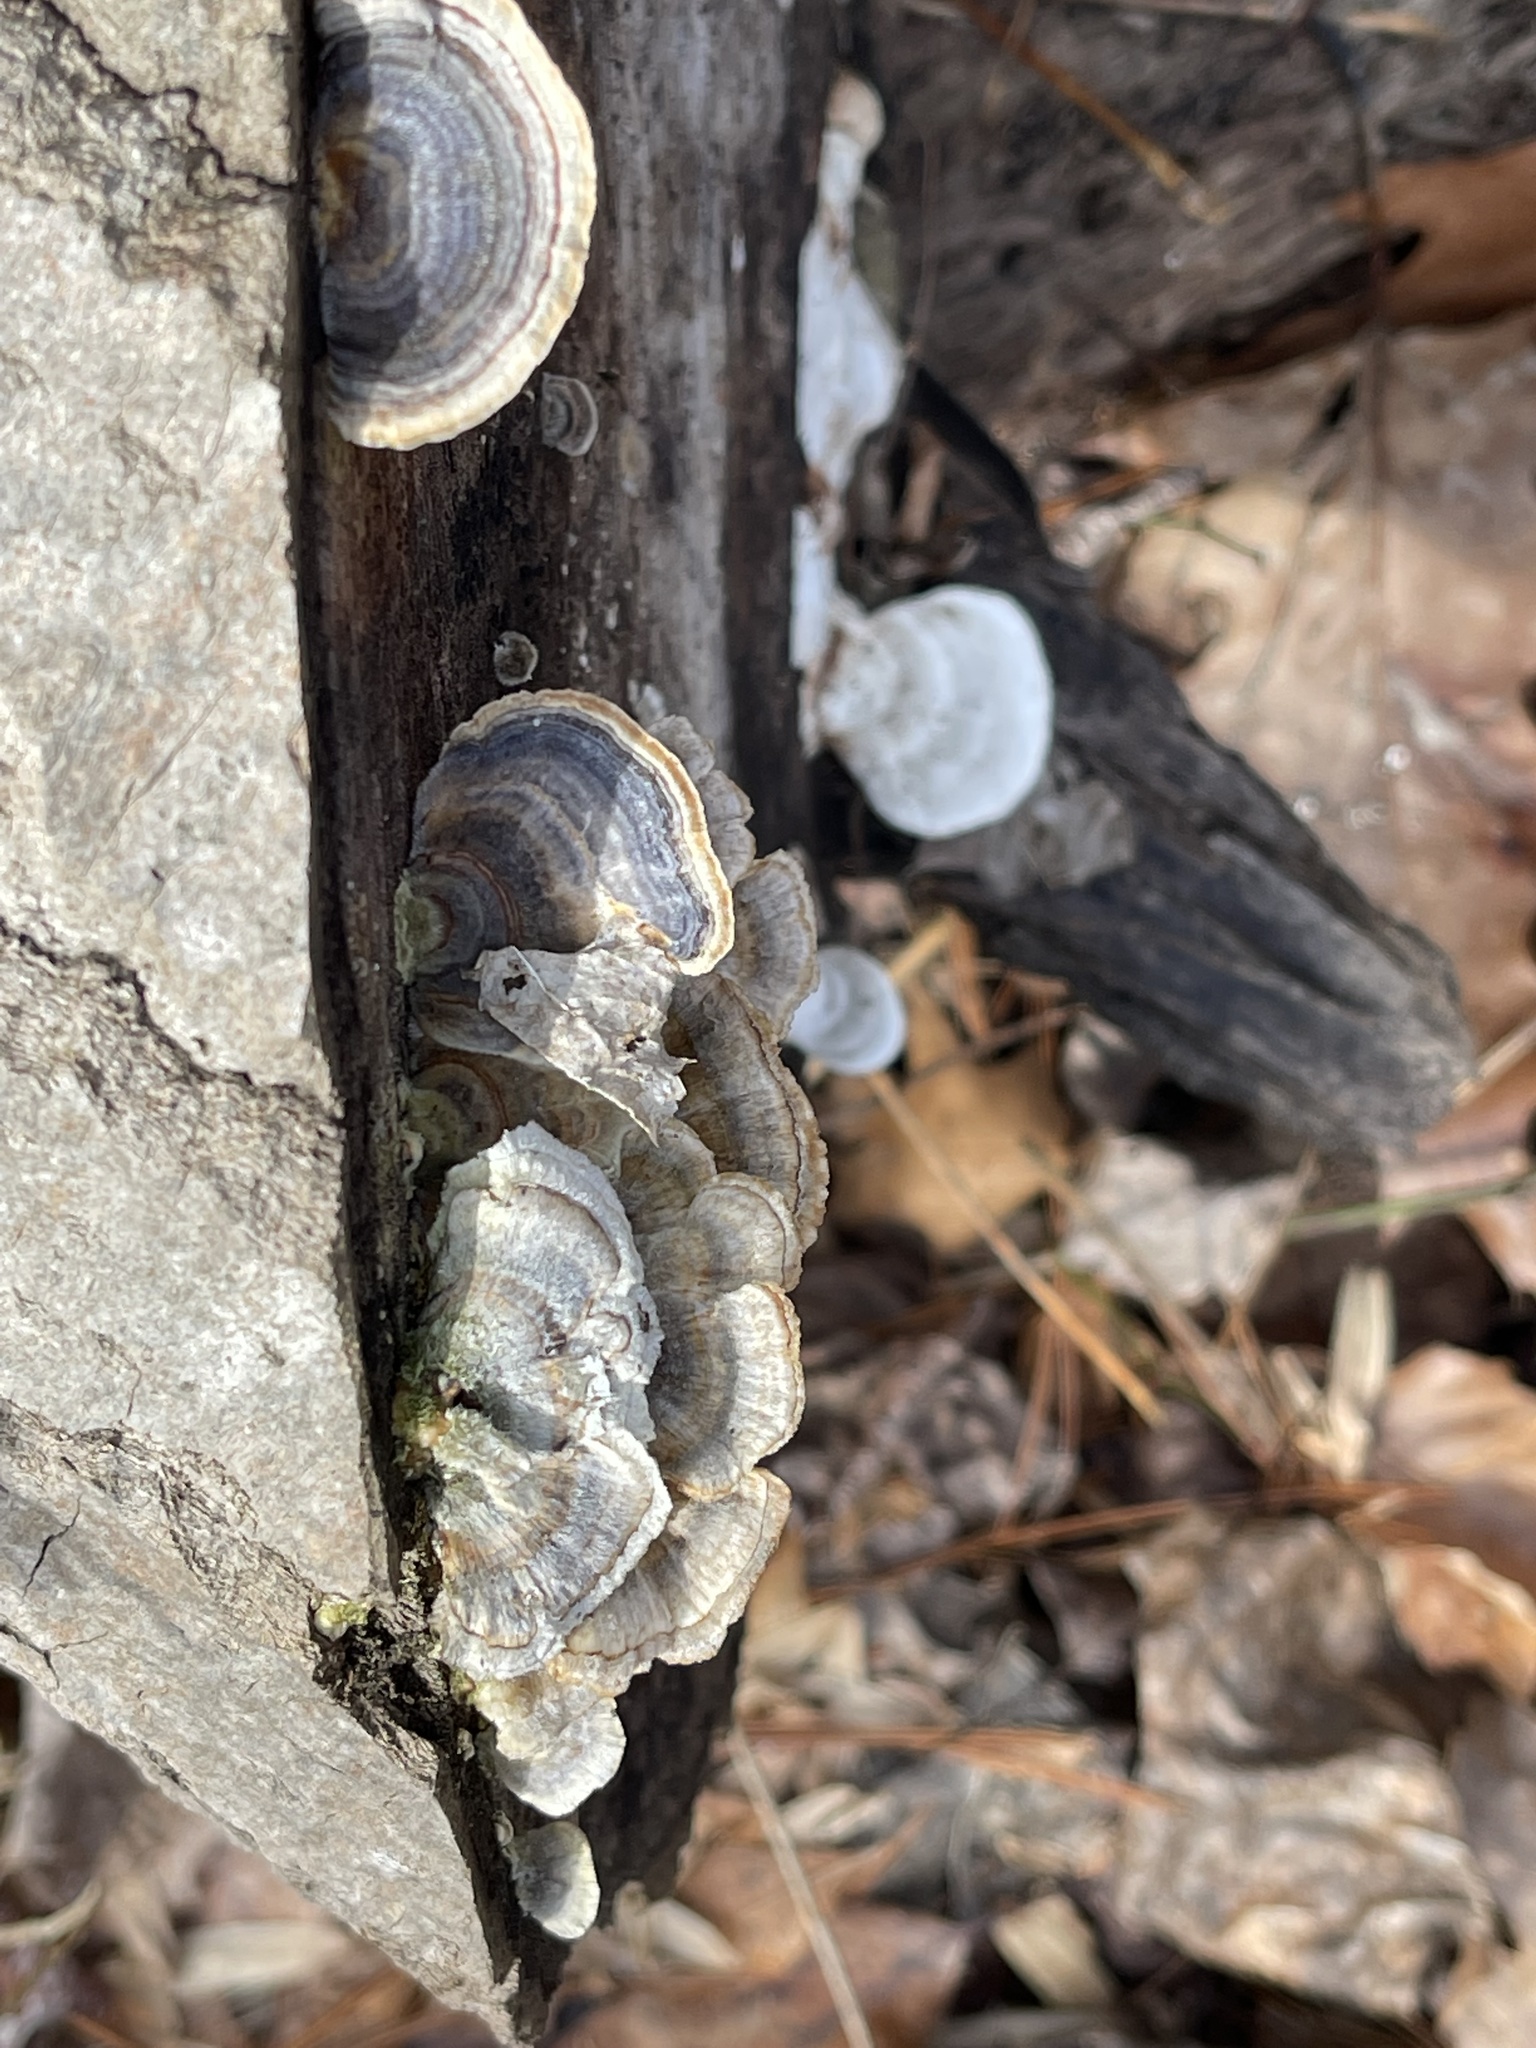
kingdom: Fungi
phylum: Basidiomycota
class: Agaricomycetes
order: Polyporales
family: Polyporaceae
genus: Trametes
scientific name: Trametes versicolor
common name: Turkeytail
